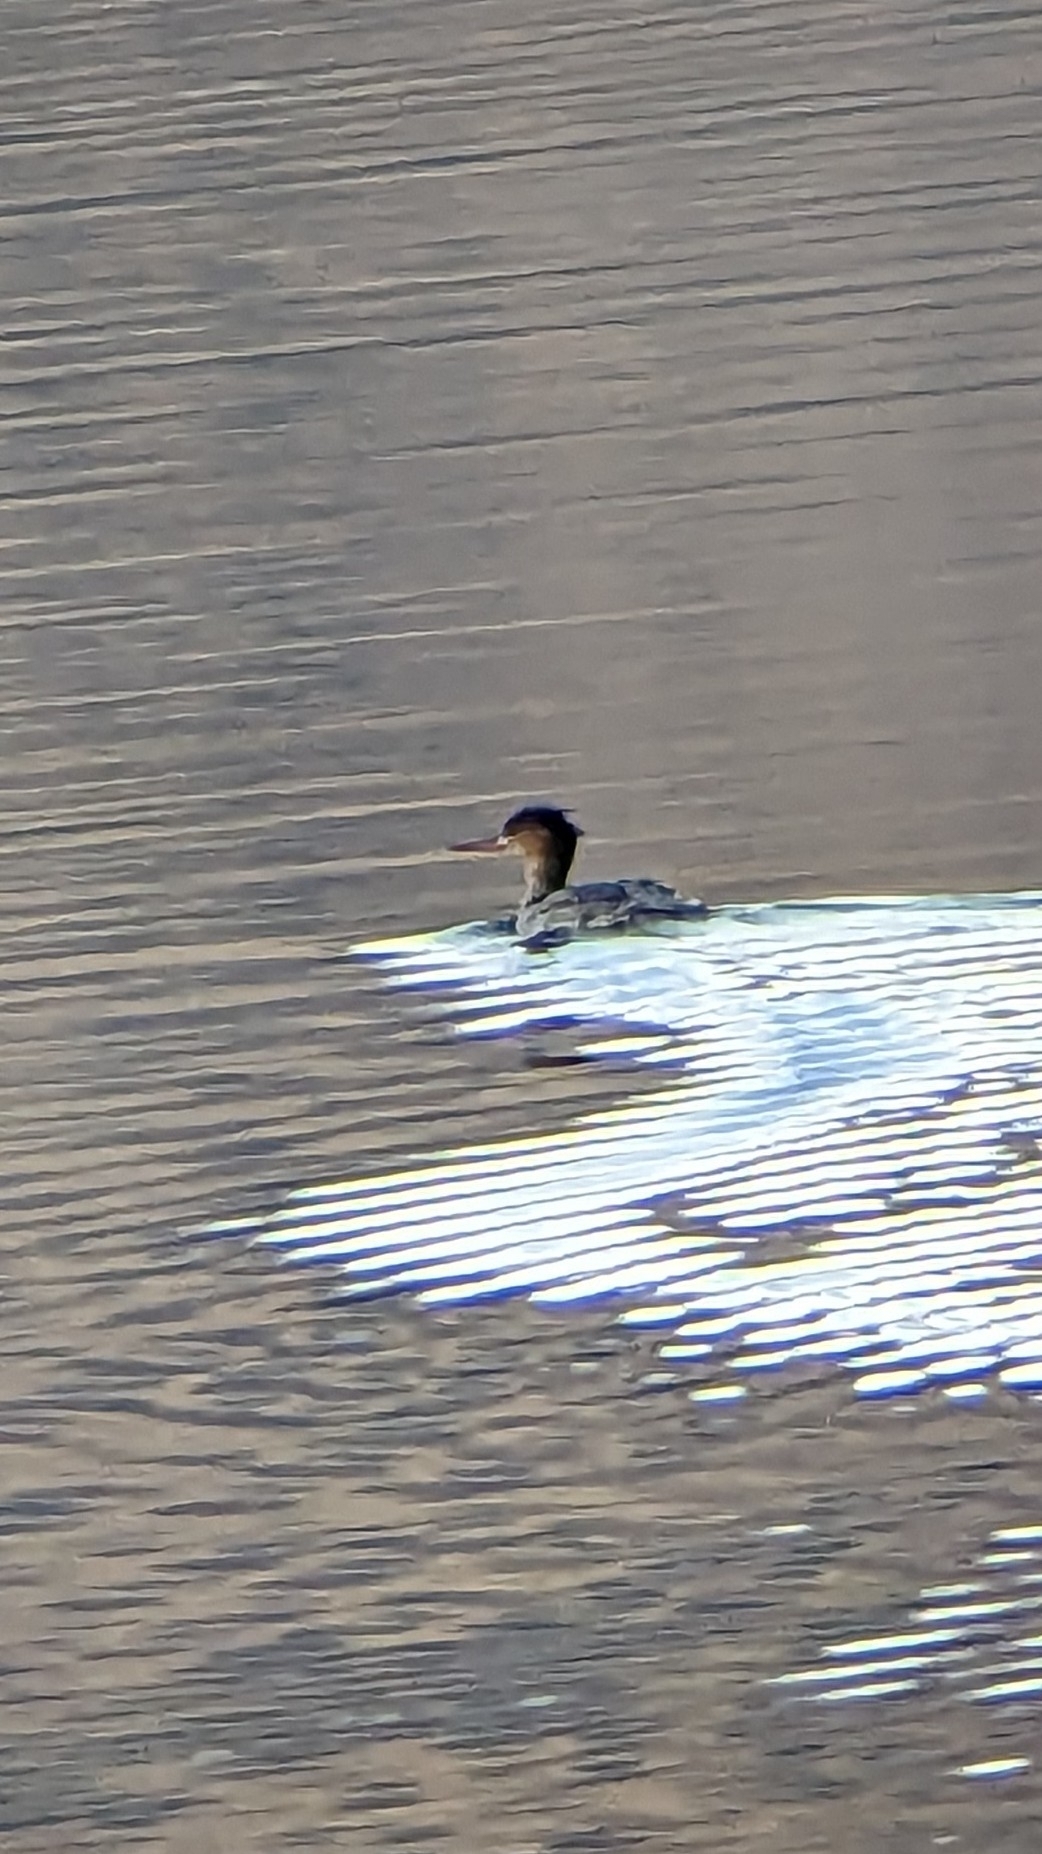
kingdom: Animalia
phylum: Chordata
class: Aves
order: Anseriformes
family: Anatidae
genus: Mergus
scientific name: Mergus serrator
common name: Red-breasted merganser
